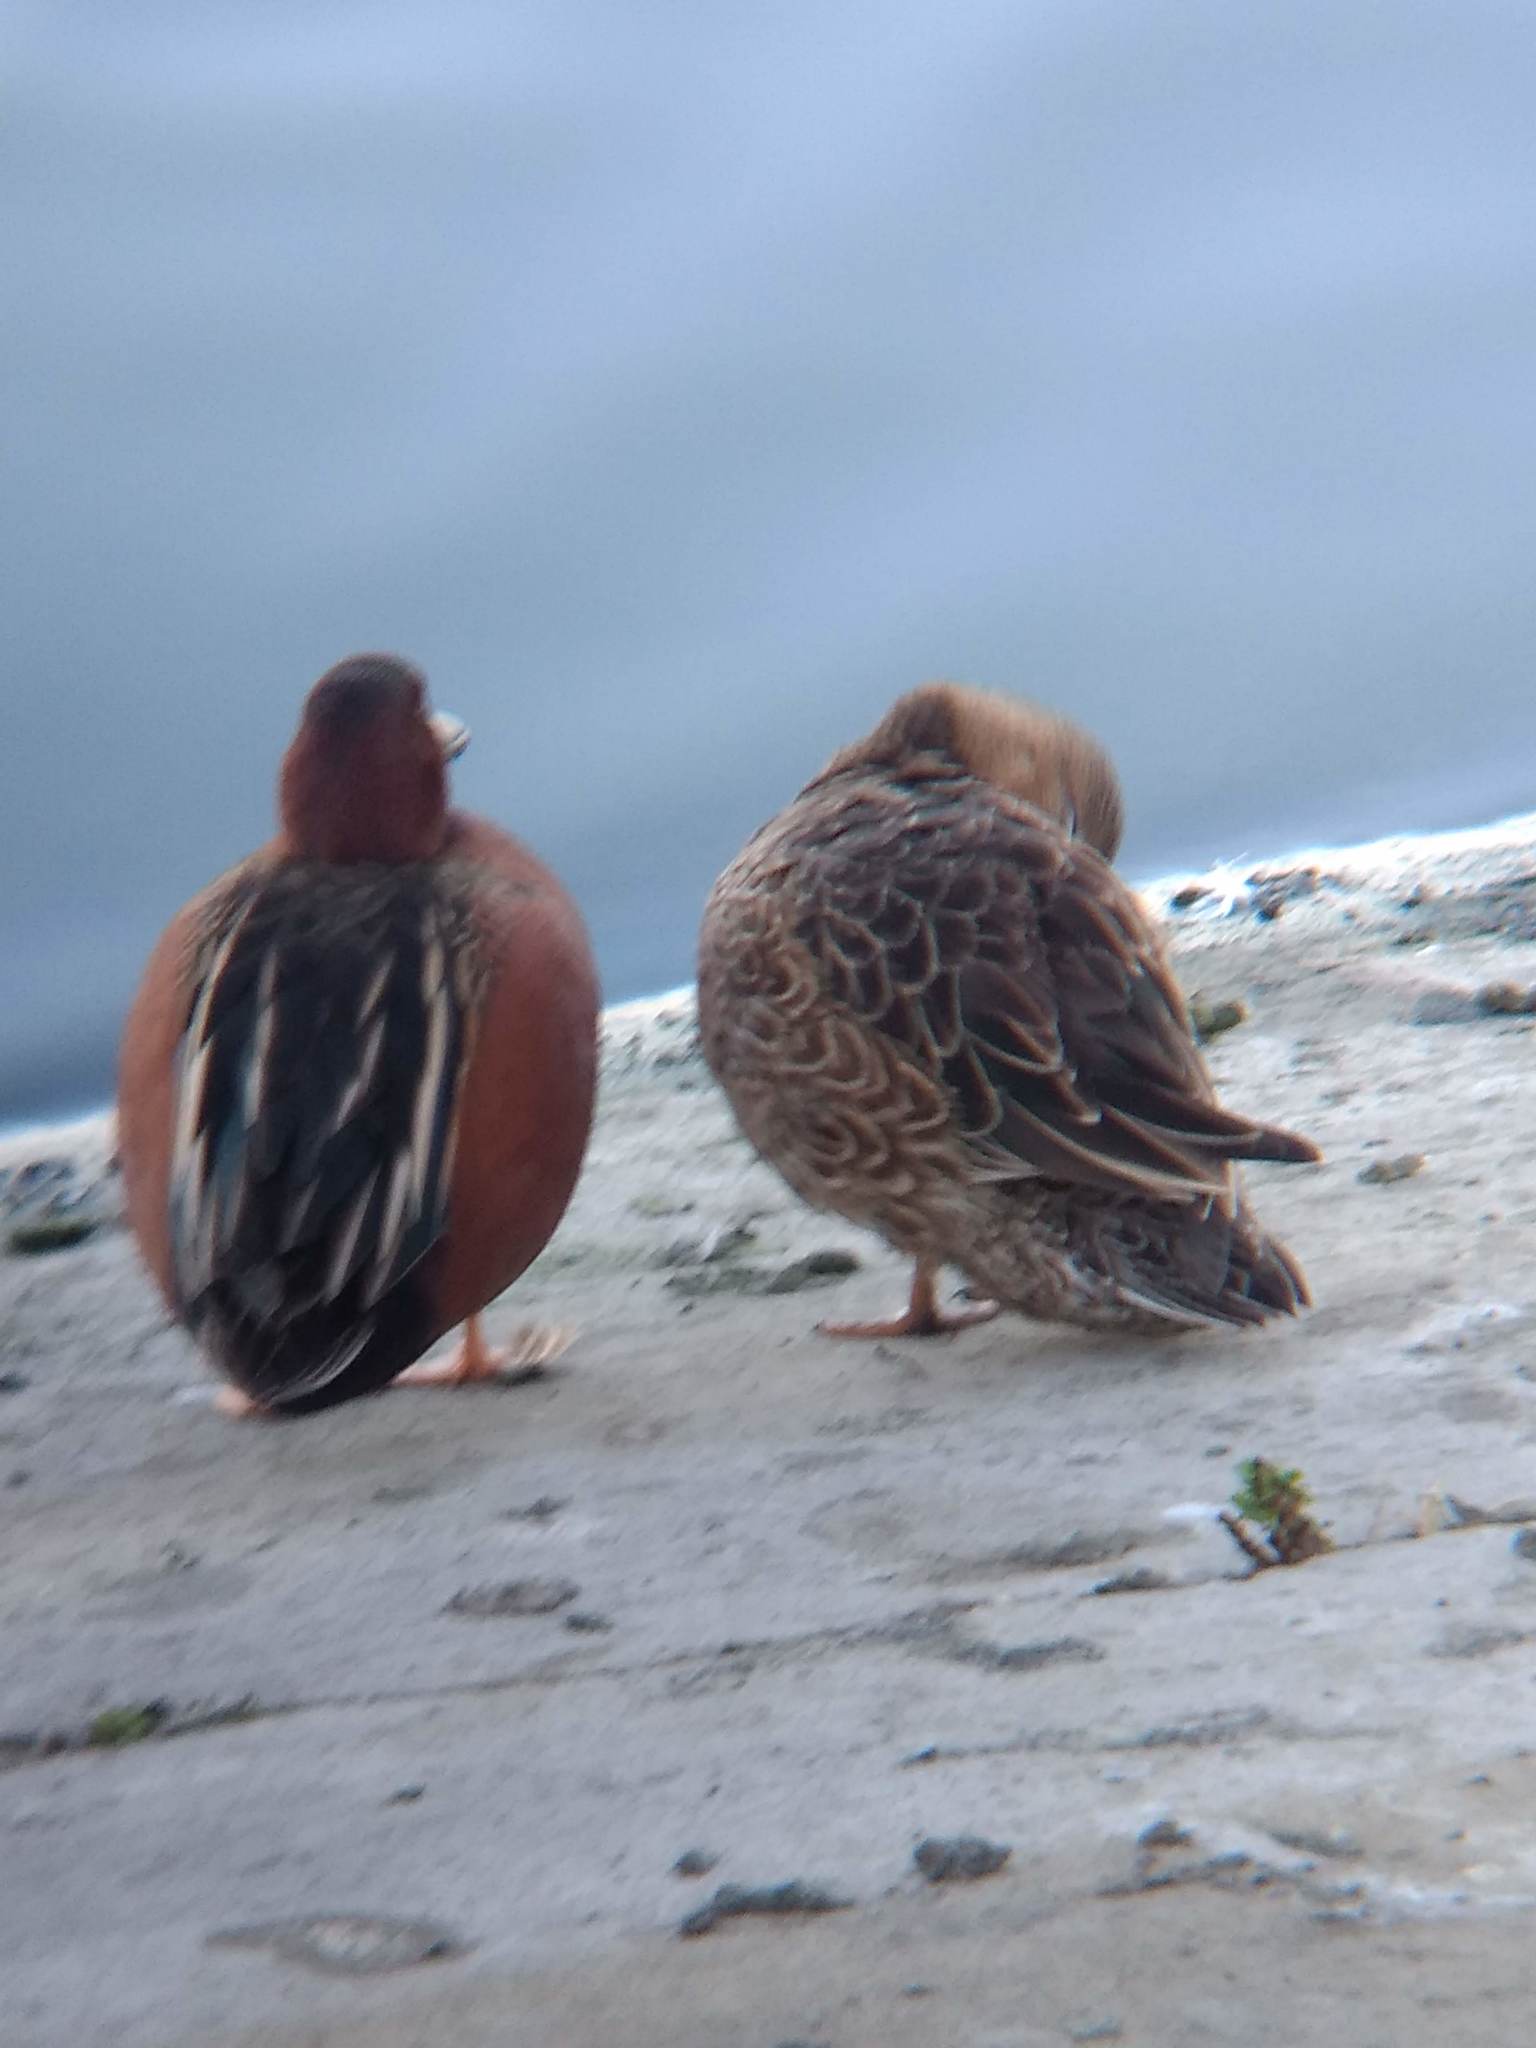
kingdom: Animalia
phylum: Chordata
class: Aves
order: Anseriformes
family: Anatidae
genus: Spatula
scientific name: Spatula cyanoptera
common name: Cinnamon teal
